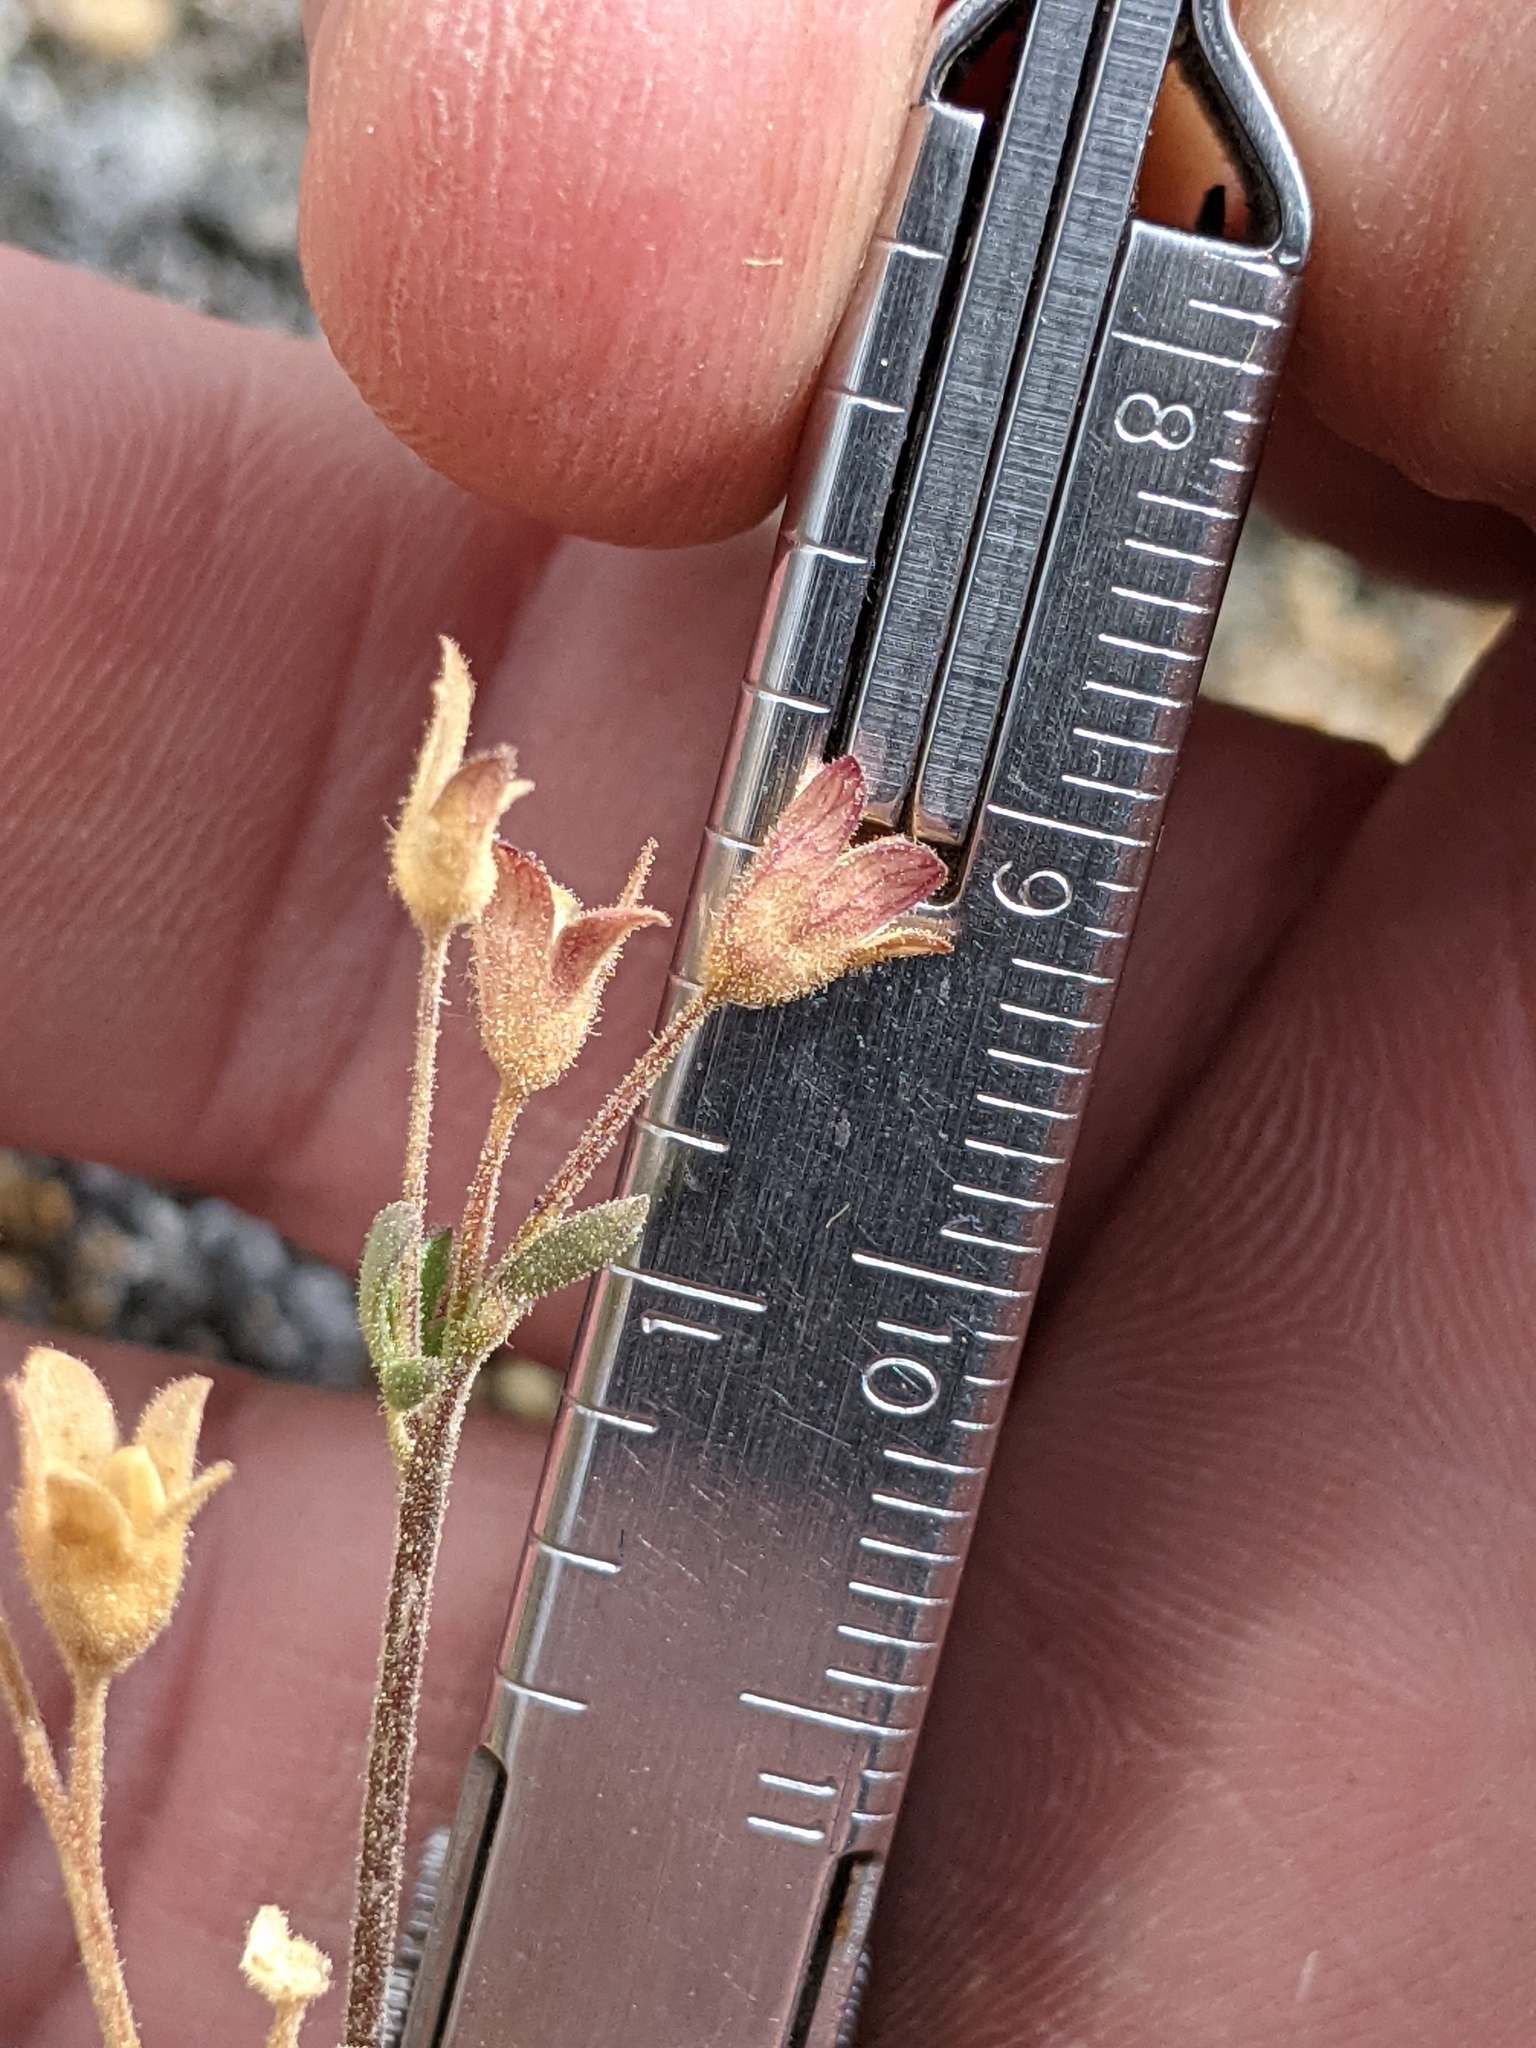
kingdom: Plantae
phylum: Tracheophyta
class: Magnoliopsida
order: Ericales
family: Polemoniaceae
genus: Polemonium
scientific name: Polemonium pulcherrimum
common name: Short jacob's-ladder
